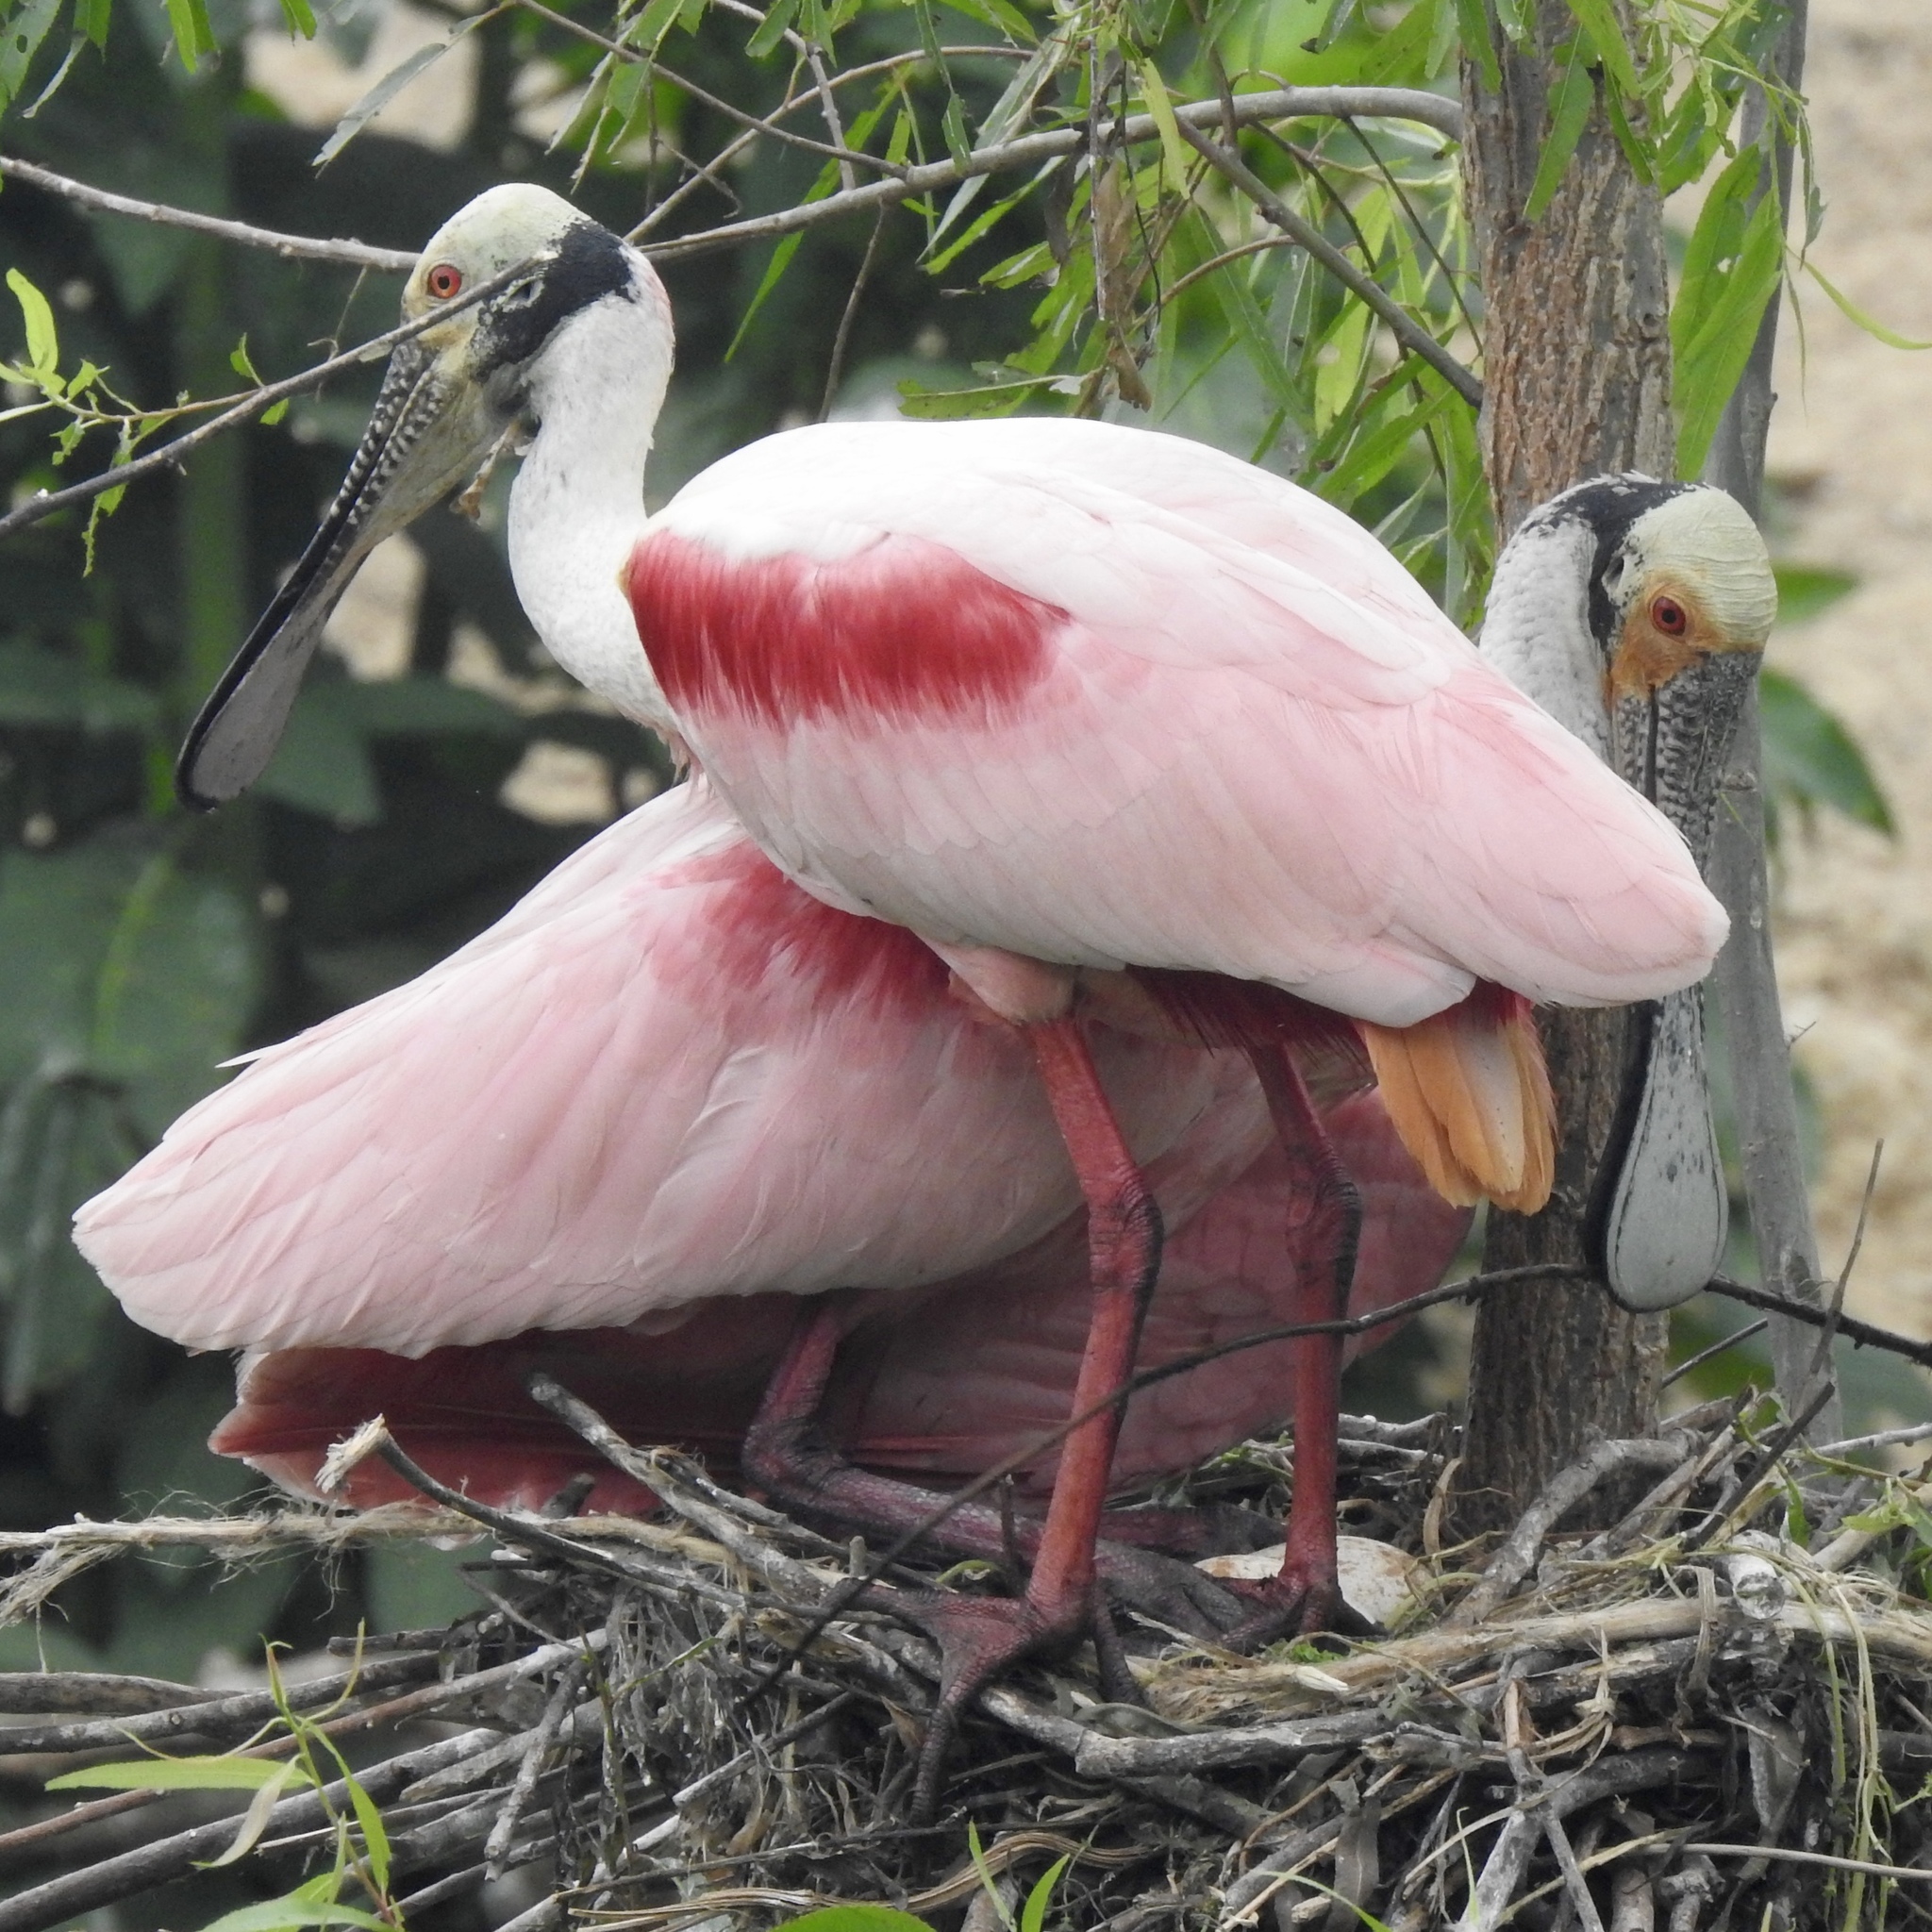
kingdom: Animalia
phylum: Chordata
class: Aves
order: Pelecaniformes
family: Threskiornithidae
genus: Platalea
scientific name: Platalea ajaja
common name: Roseate spoonbill
